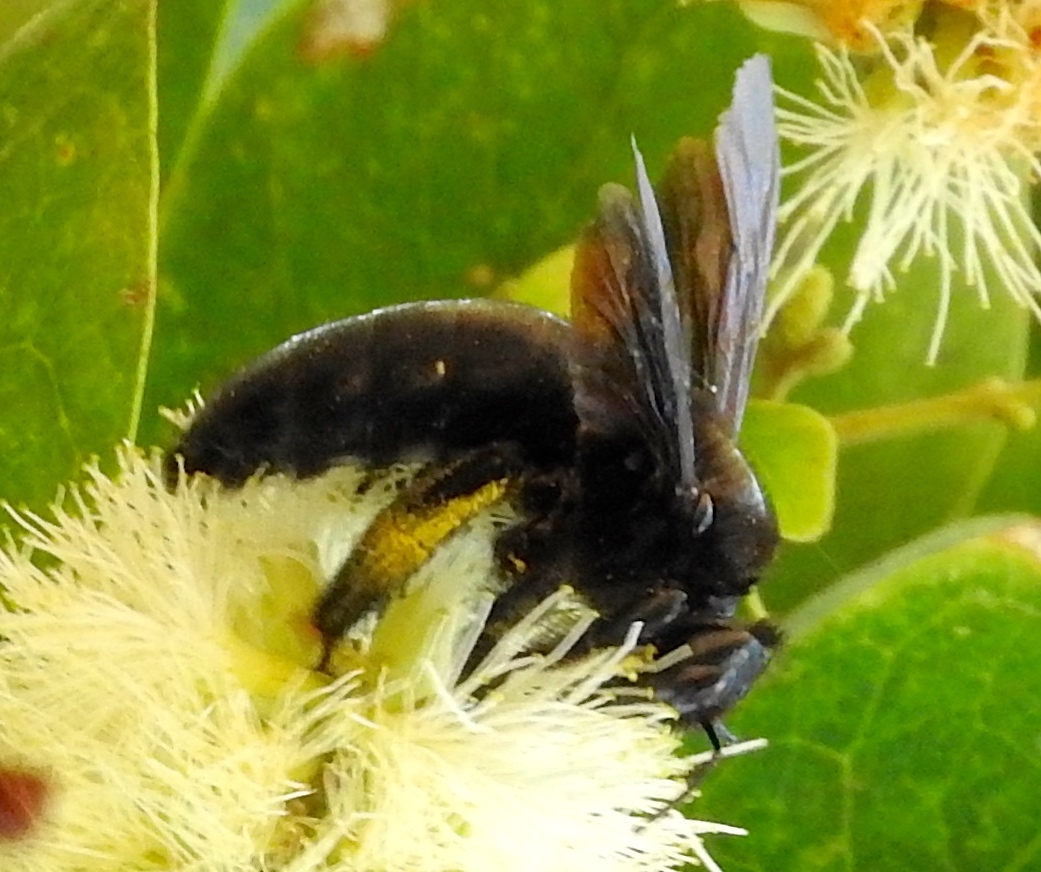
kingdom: Animalia
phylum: Arthropoda
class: Insecta
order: Hymenoptera
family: Apidae
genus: Xylocopa
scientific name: Xylocopa
